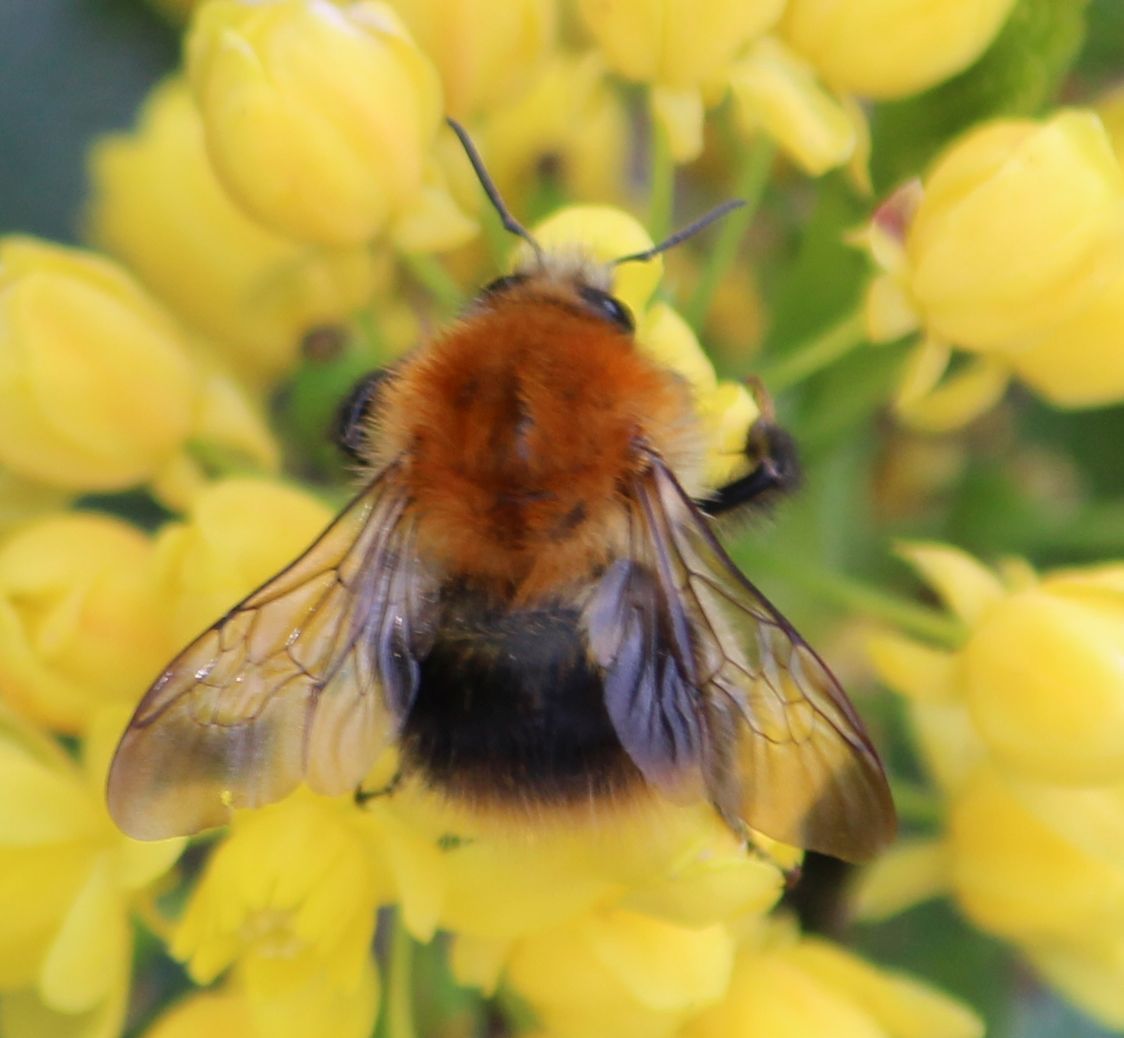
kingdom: Animalia
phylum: Arthropoda
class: Insecta
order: Hymenoptera
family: Apidae
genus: Bombus
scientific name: Bombus pascuorum
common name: Common carder bee
